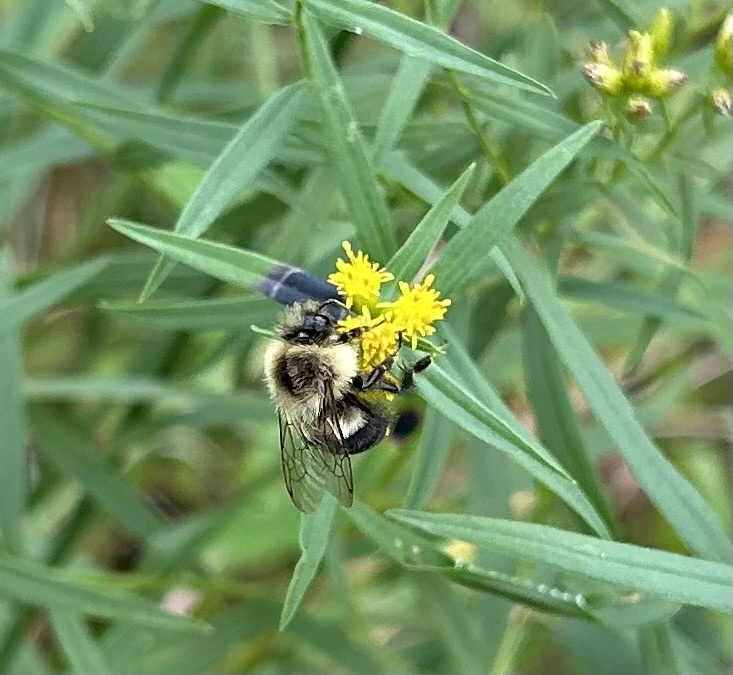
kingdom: Animalia
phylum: Arthropoda
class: Insecta
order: Hymenoptera
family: Apidae
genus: Bombus
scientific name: Bombus impatiens
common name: Common eastern bumble bee
